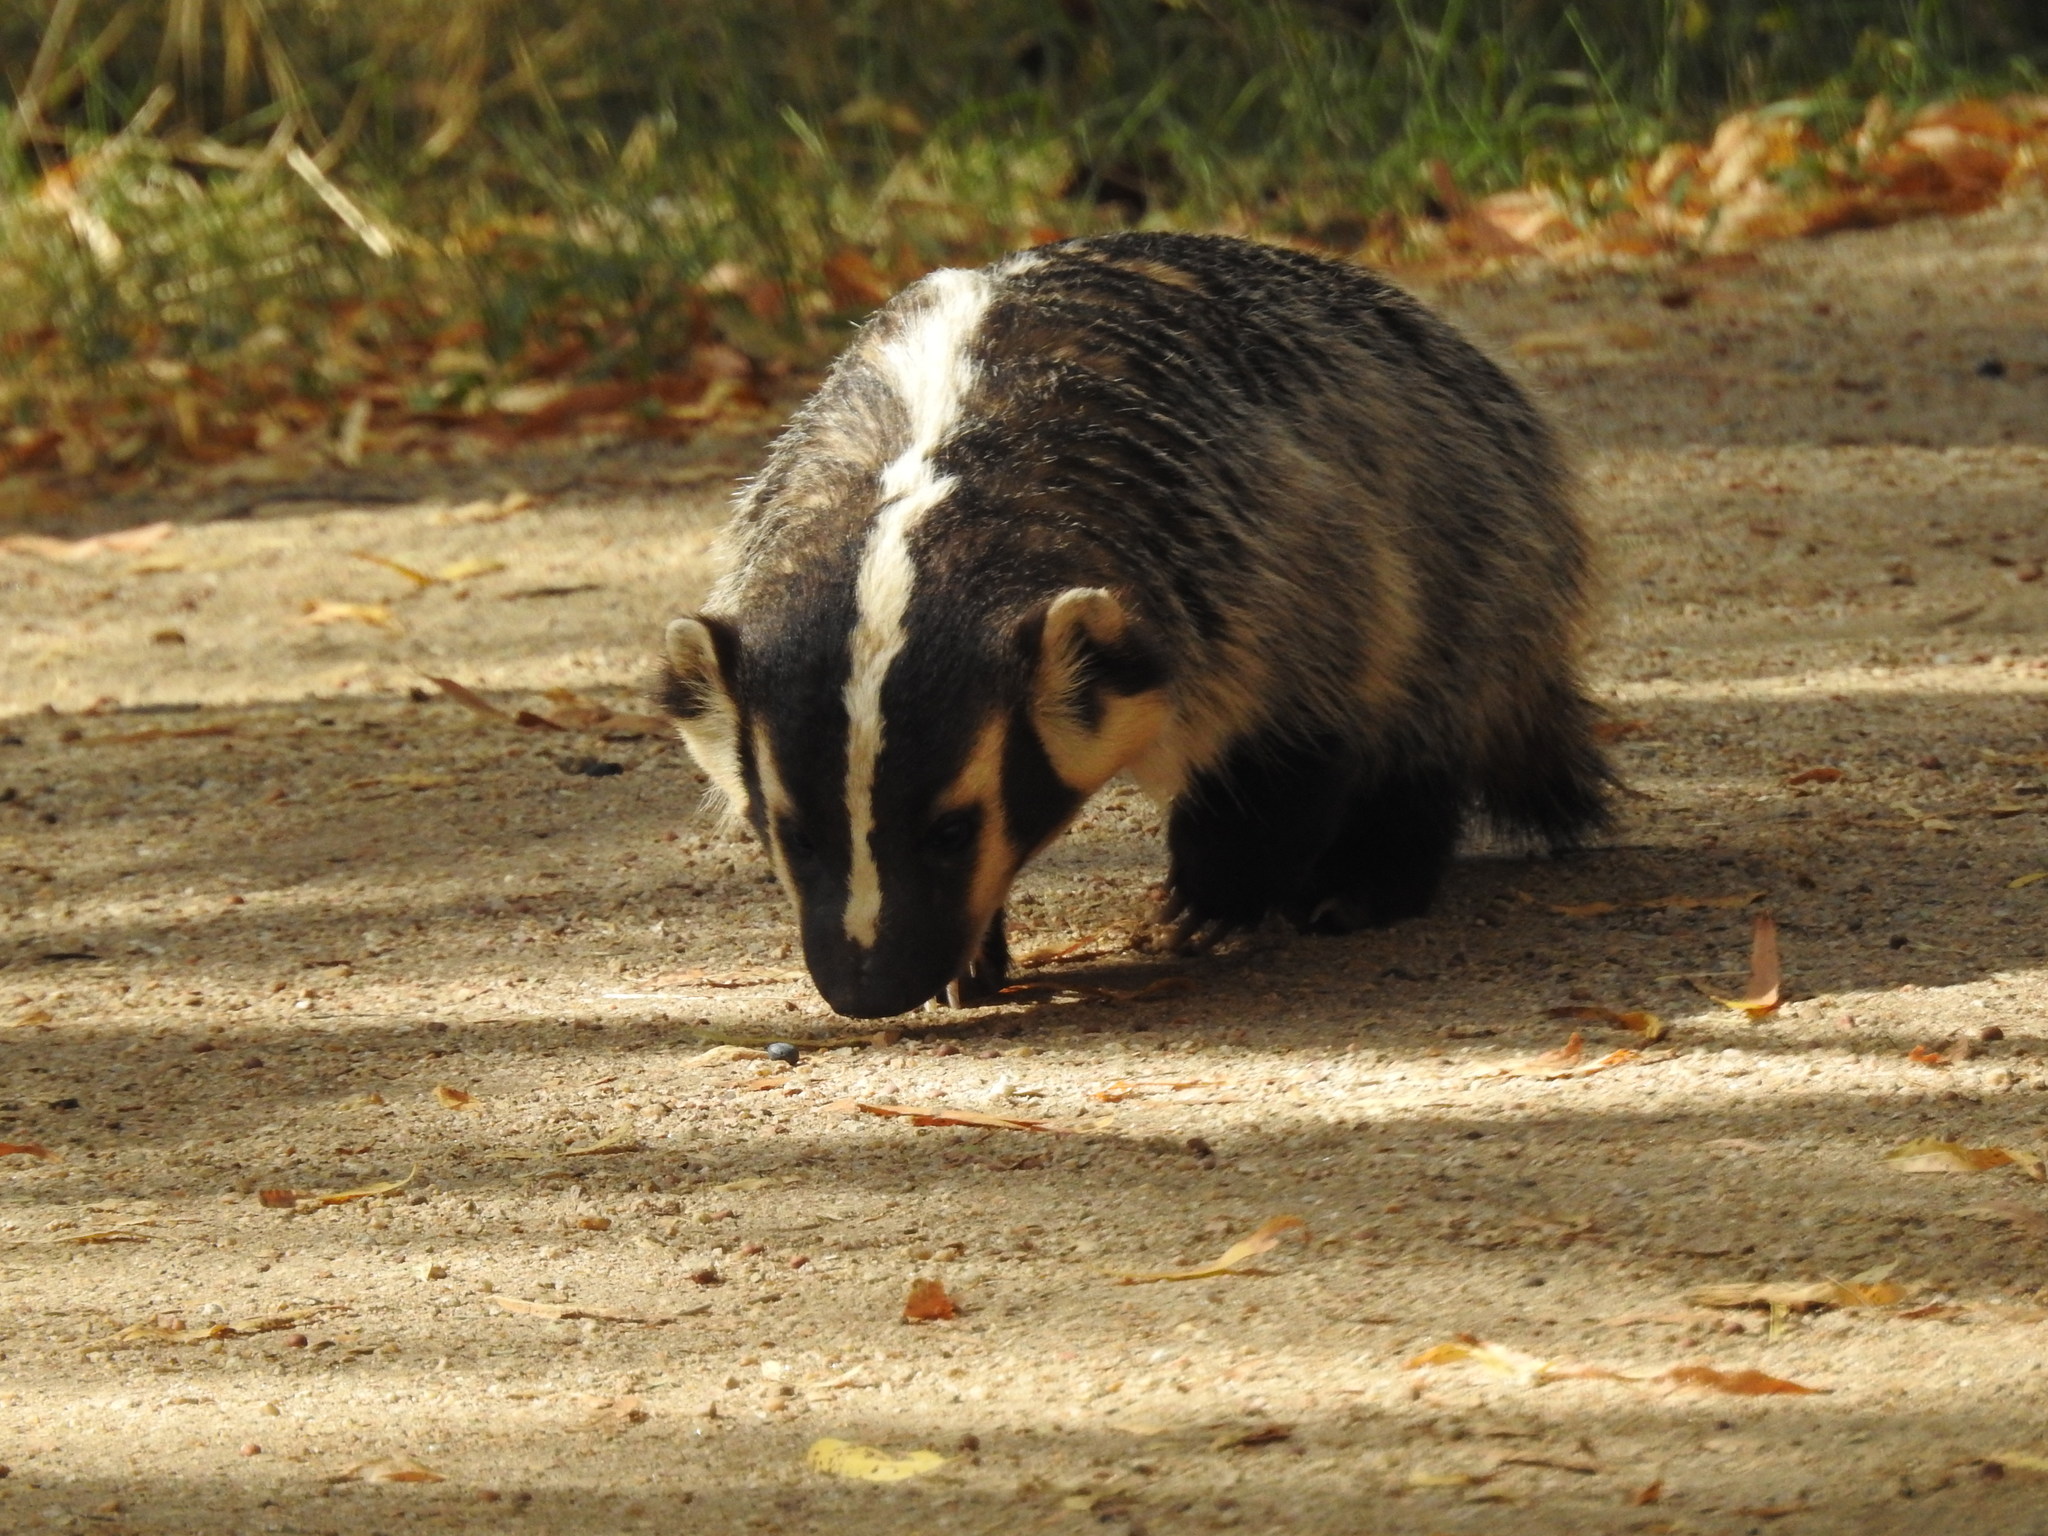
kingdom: Animalia
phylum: Chordata
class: Mammalia
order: Carnivora
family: Mustelidae
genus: Taxidea
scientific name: Taxidea taxus
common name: American badger
